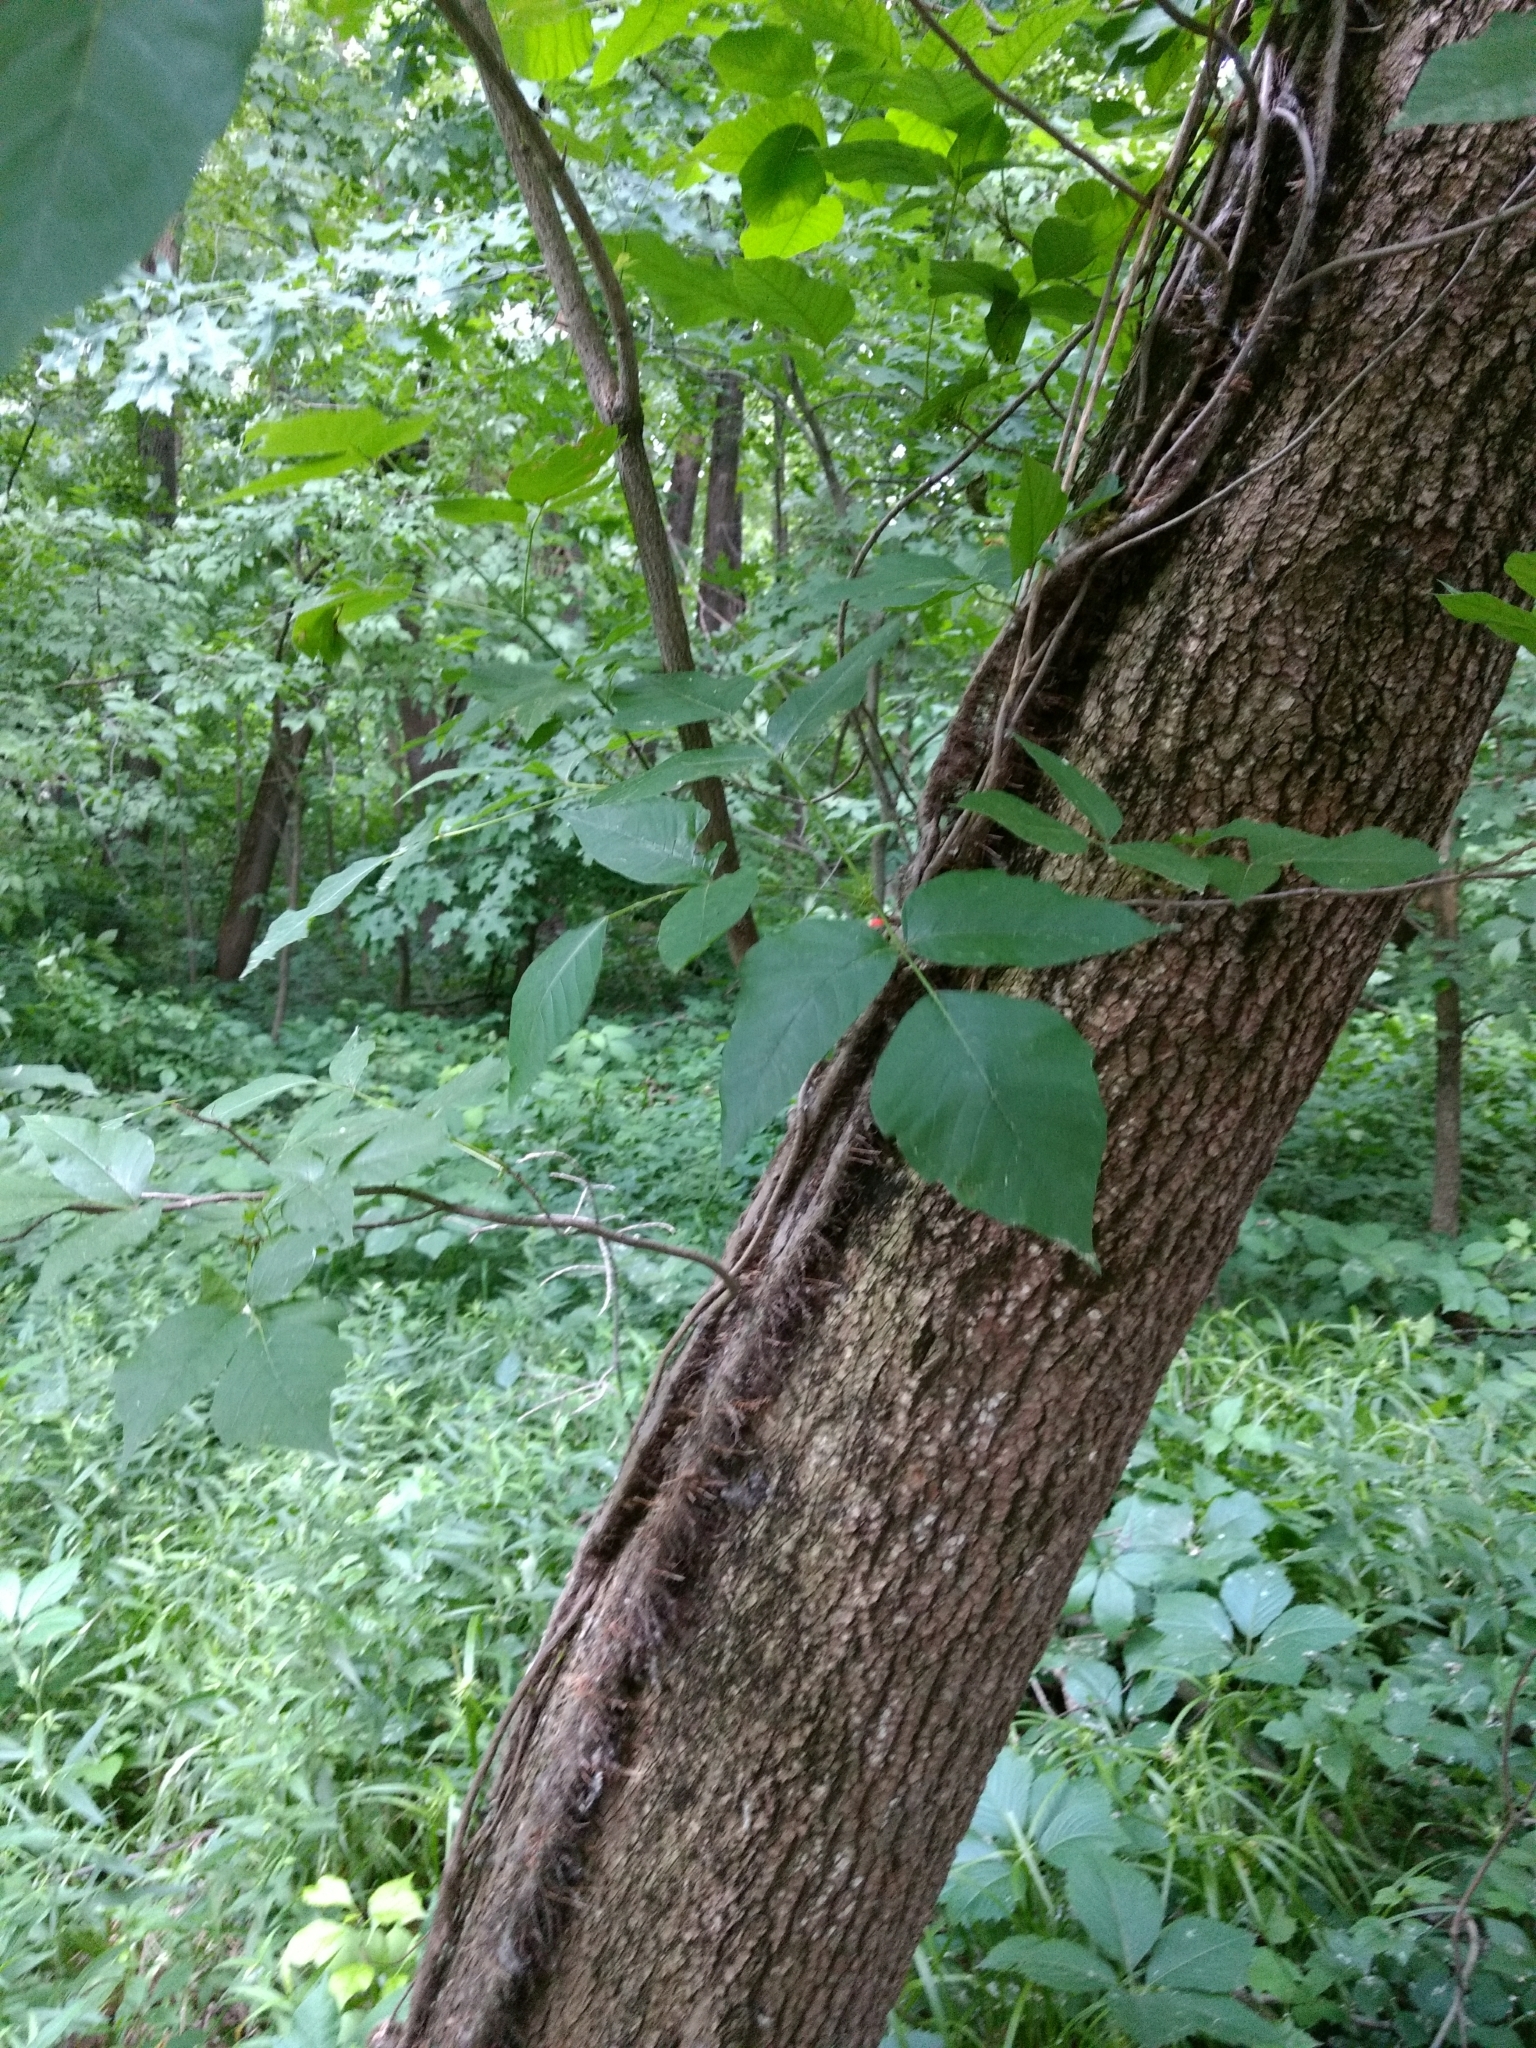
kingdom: Plantae
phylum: Tracheophyta
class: Magnoliopsida
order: Sapindales
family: Anacardiaceae
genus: Toxicodendron
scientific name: Toxicodendron radicans
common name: Poison ivy
